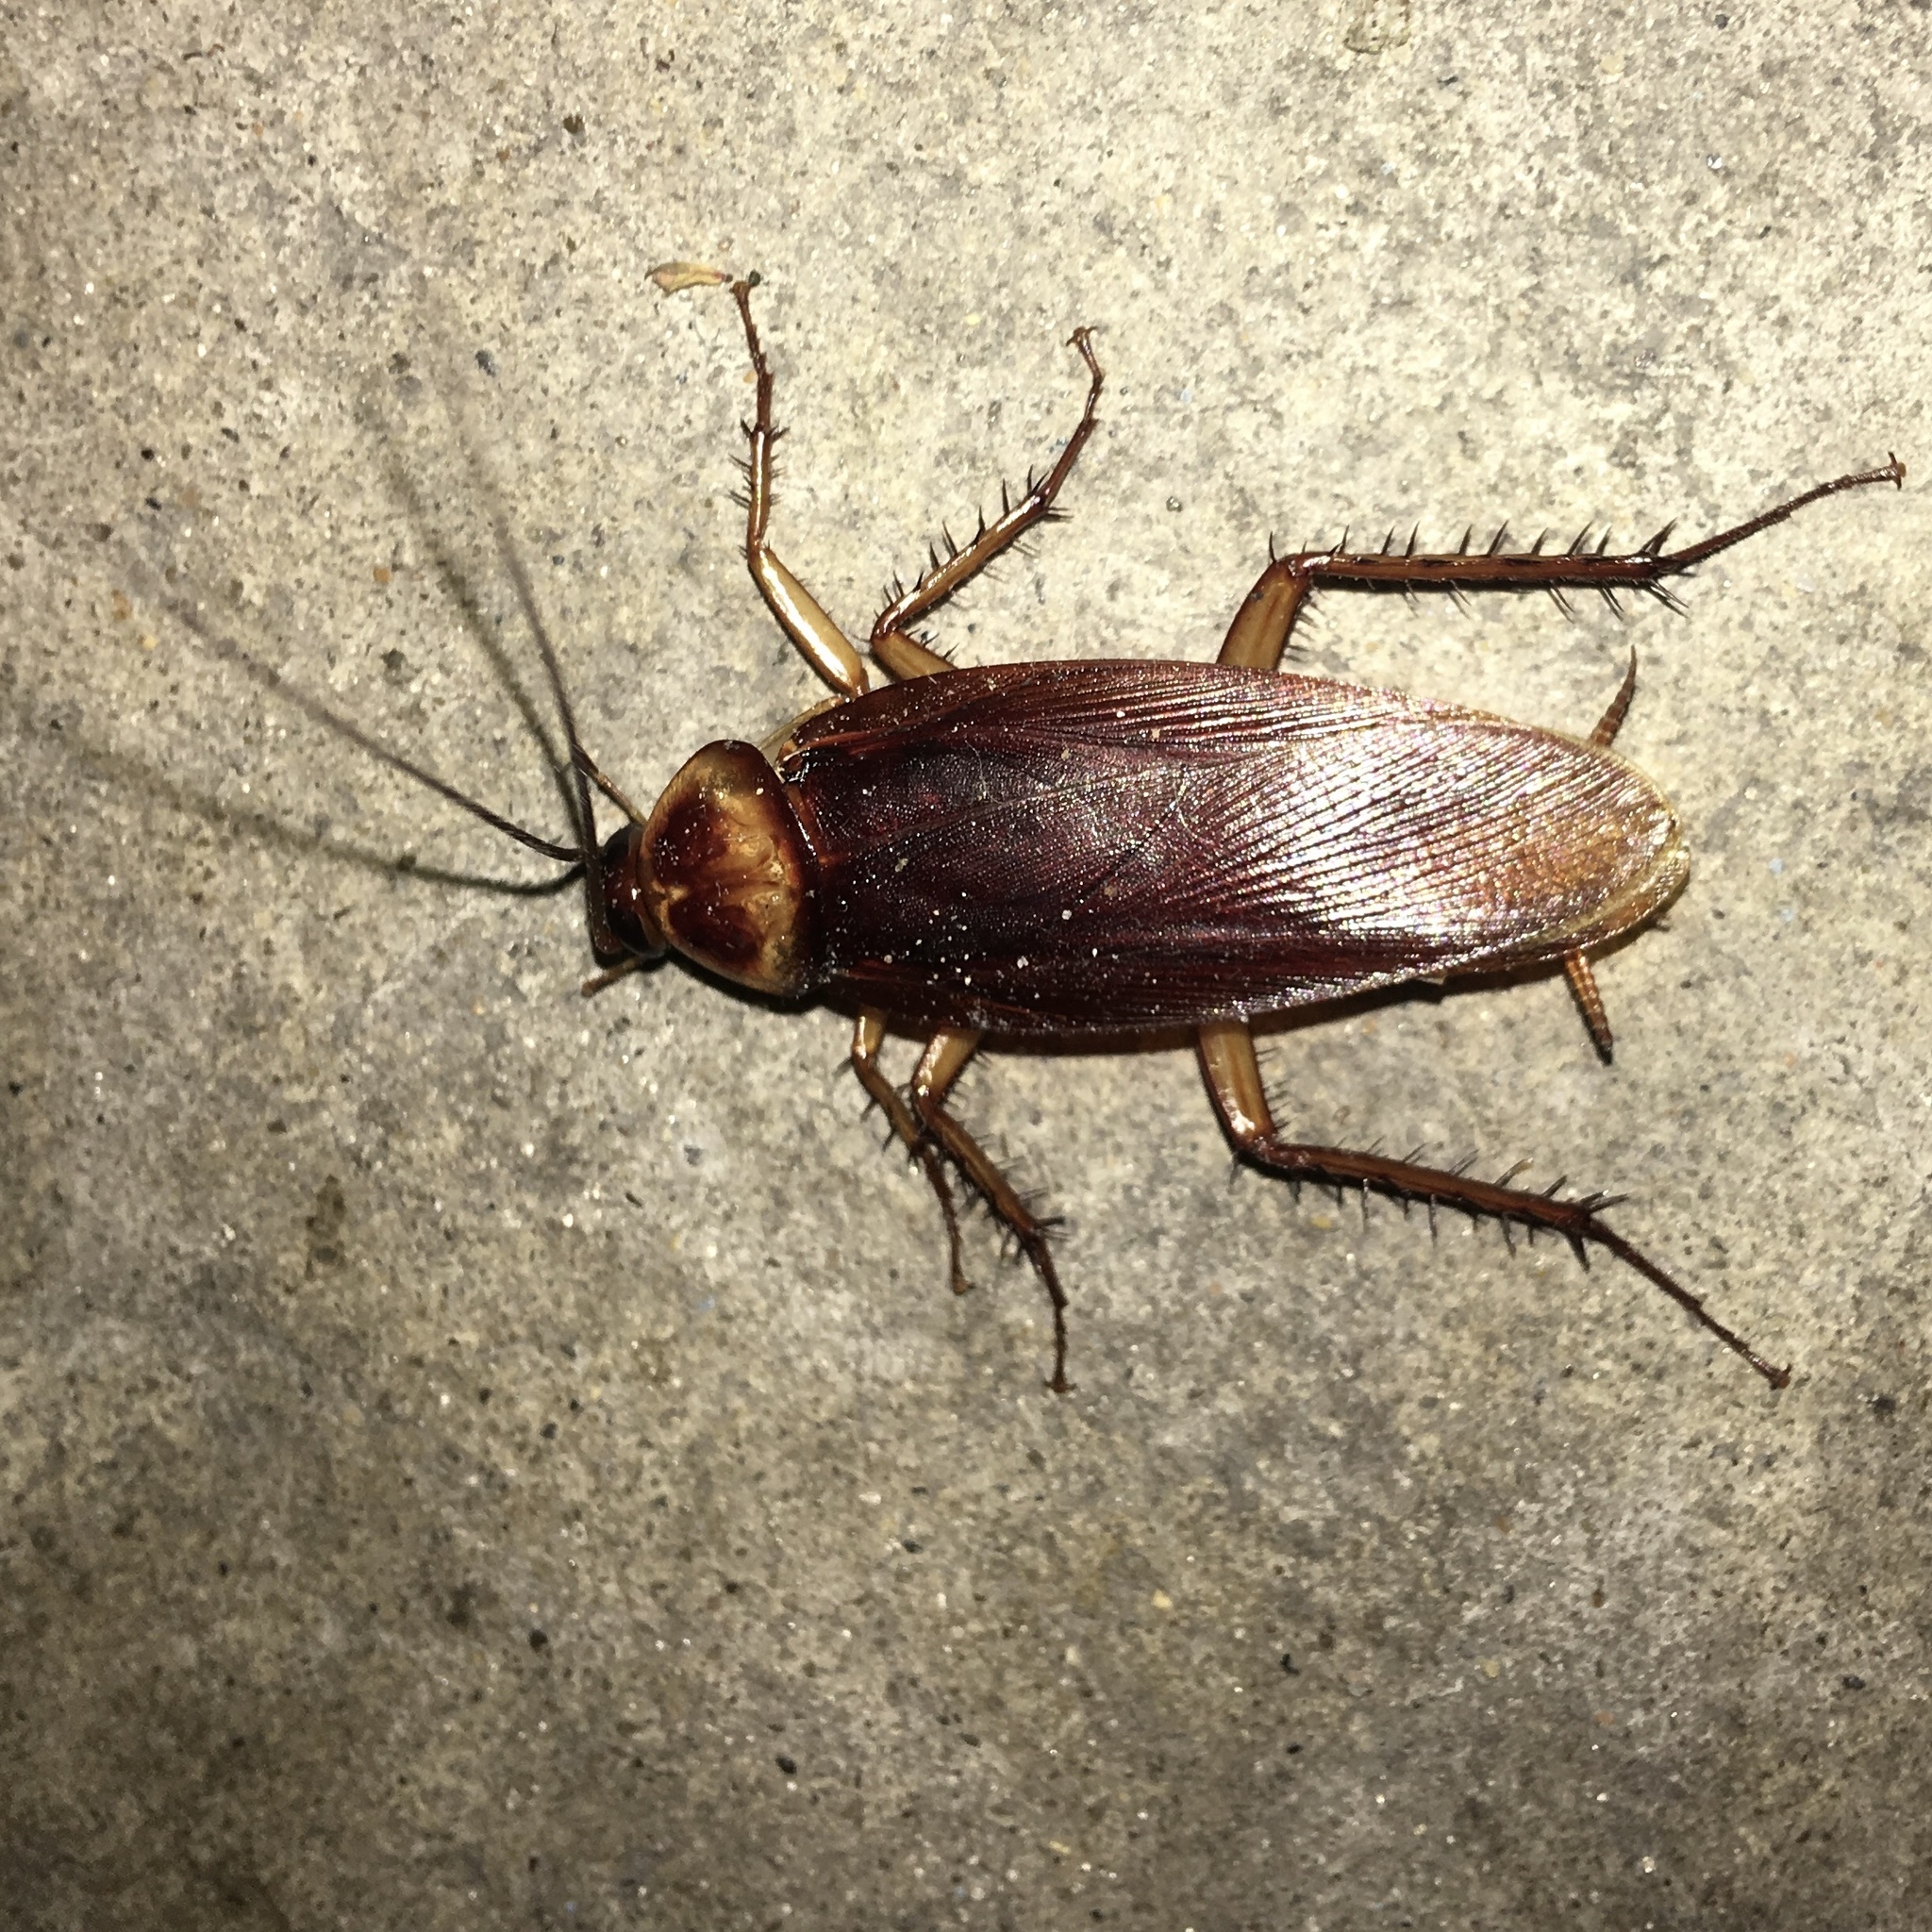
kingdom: Animalia
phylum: Arthropoda
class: Insecta
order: Blattodea
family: Blattidae
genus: Periplaneta
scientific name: Periplaneta americana
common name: American cockroach
